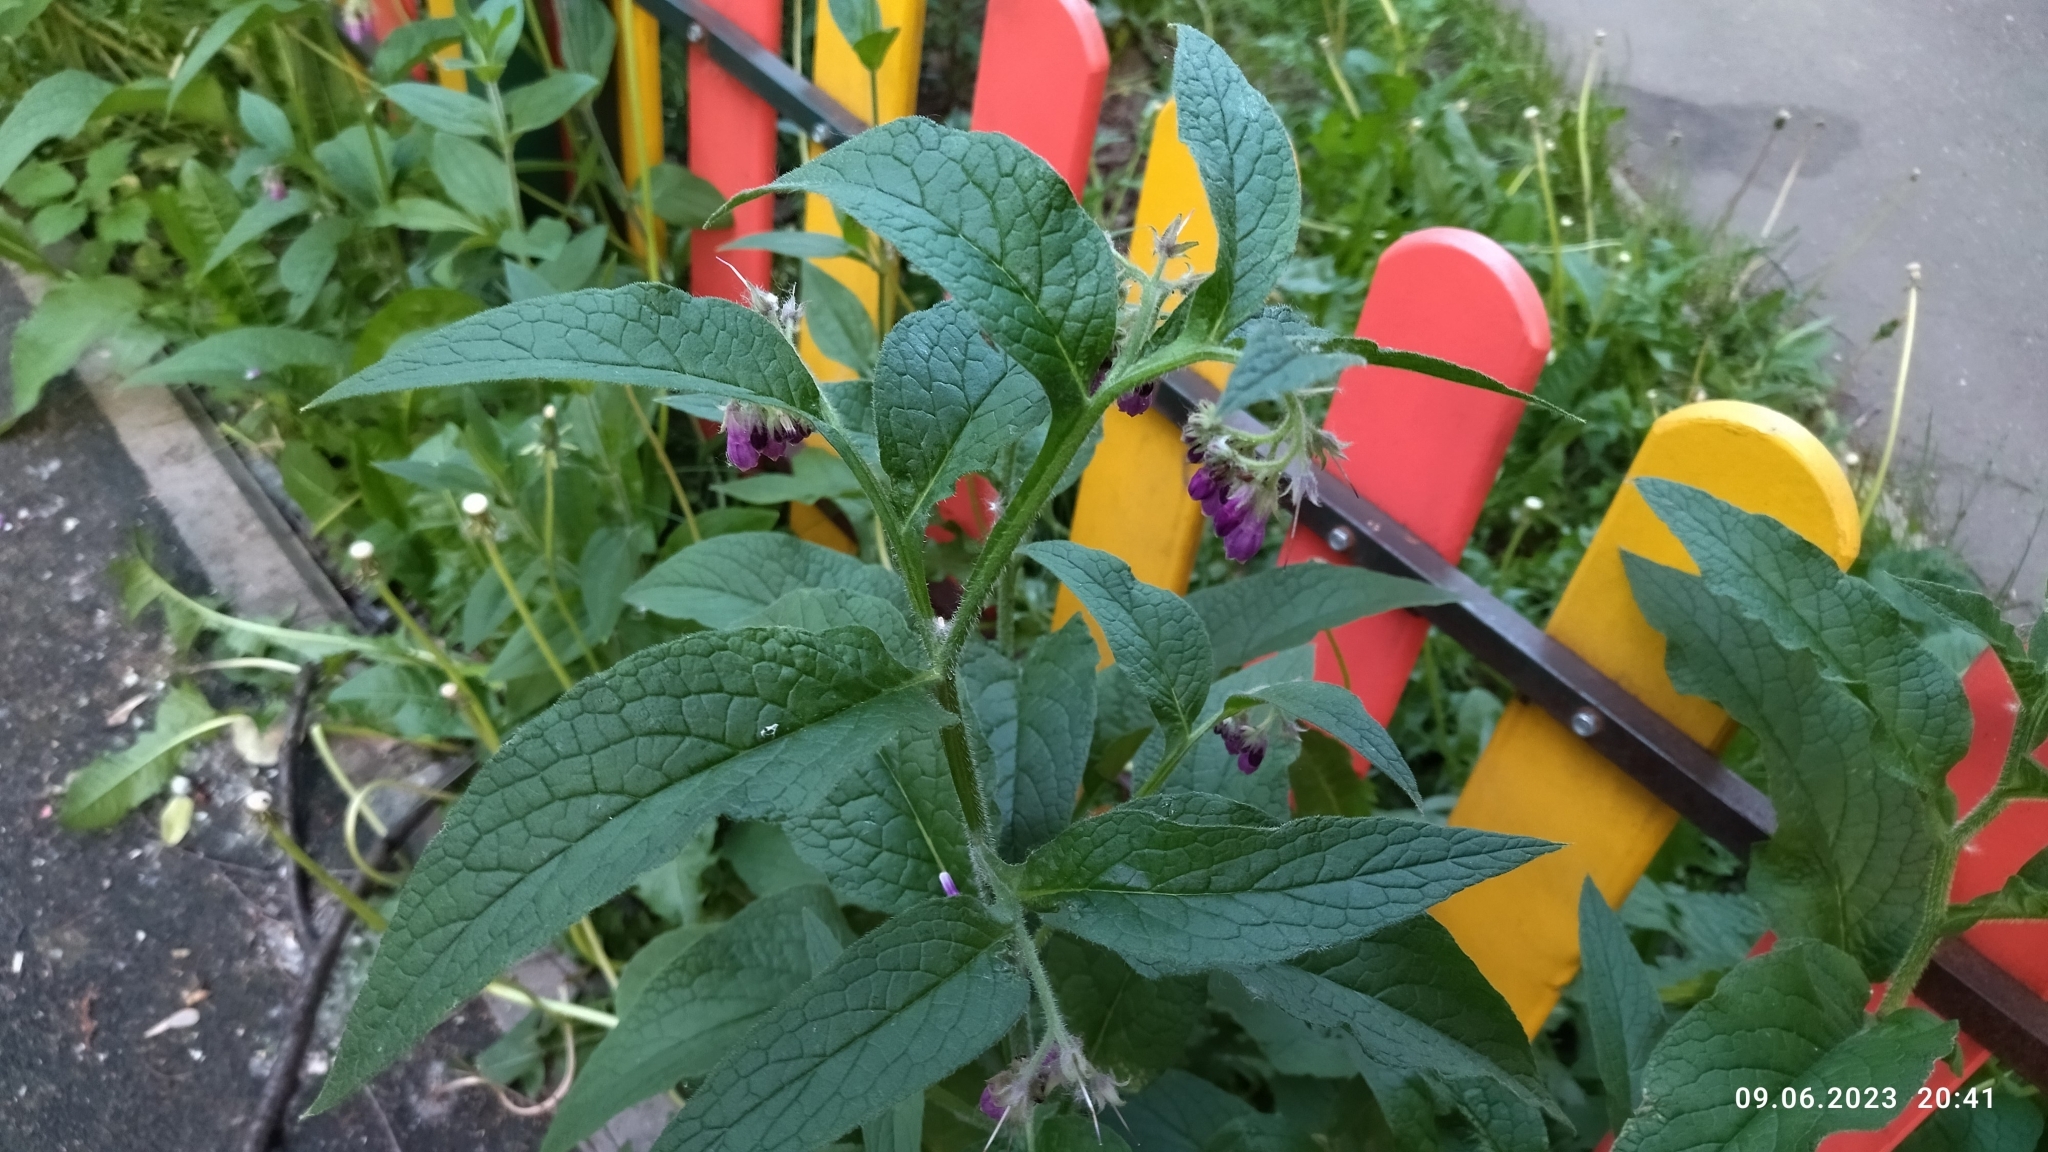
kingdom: Plantae
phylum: Tracheophyta
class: Magnoliopsida
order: Boraginales
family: Boraginaceae
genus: Symphytum
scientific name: Symphytum officinale
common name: Common comfrey
